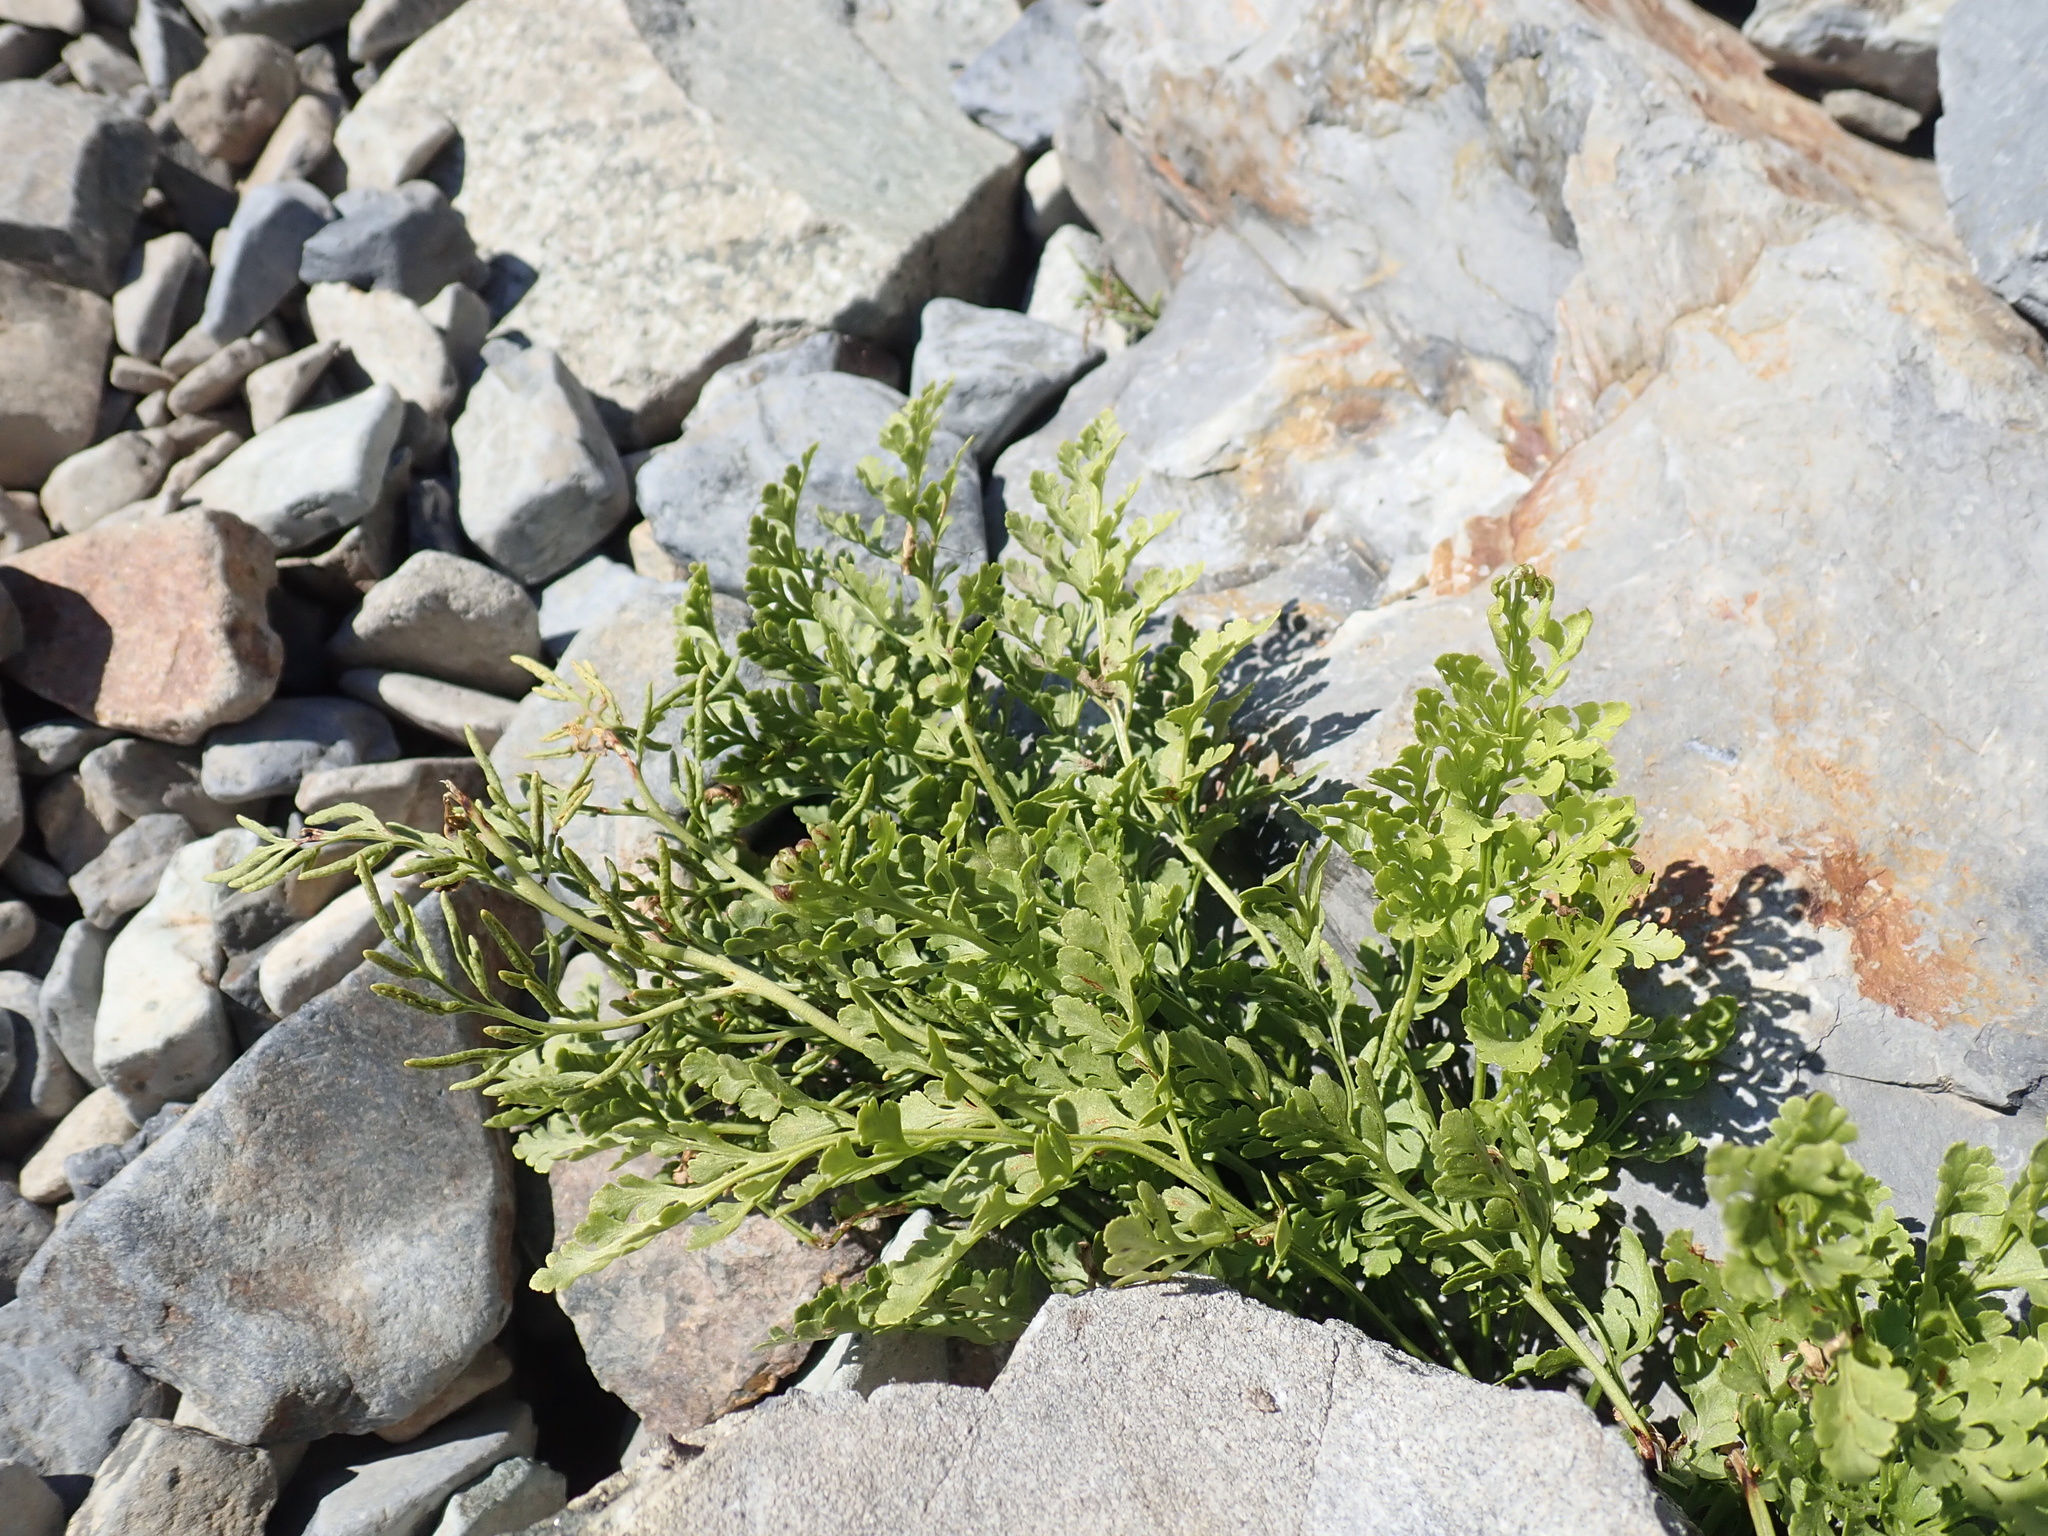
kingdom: Plantae
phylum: Tracheophyta
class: Polypodiopsida
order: Polypodiales
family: Pteridaceae
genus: Cryptogramma
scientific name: Cryptogramma cascadensis
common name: Cascade parsley fern
